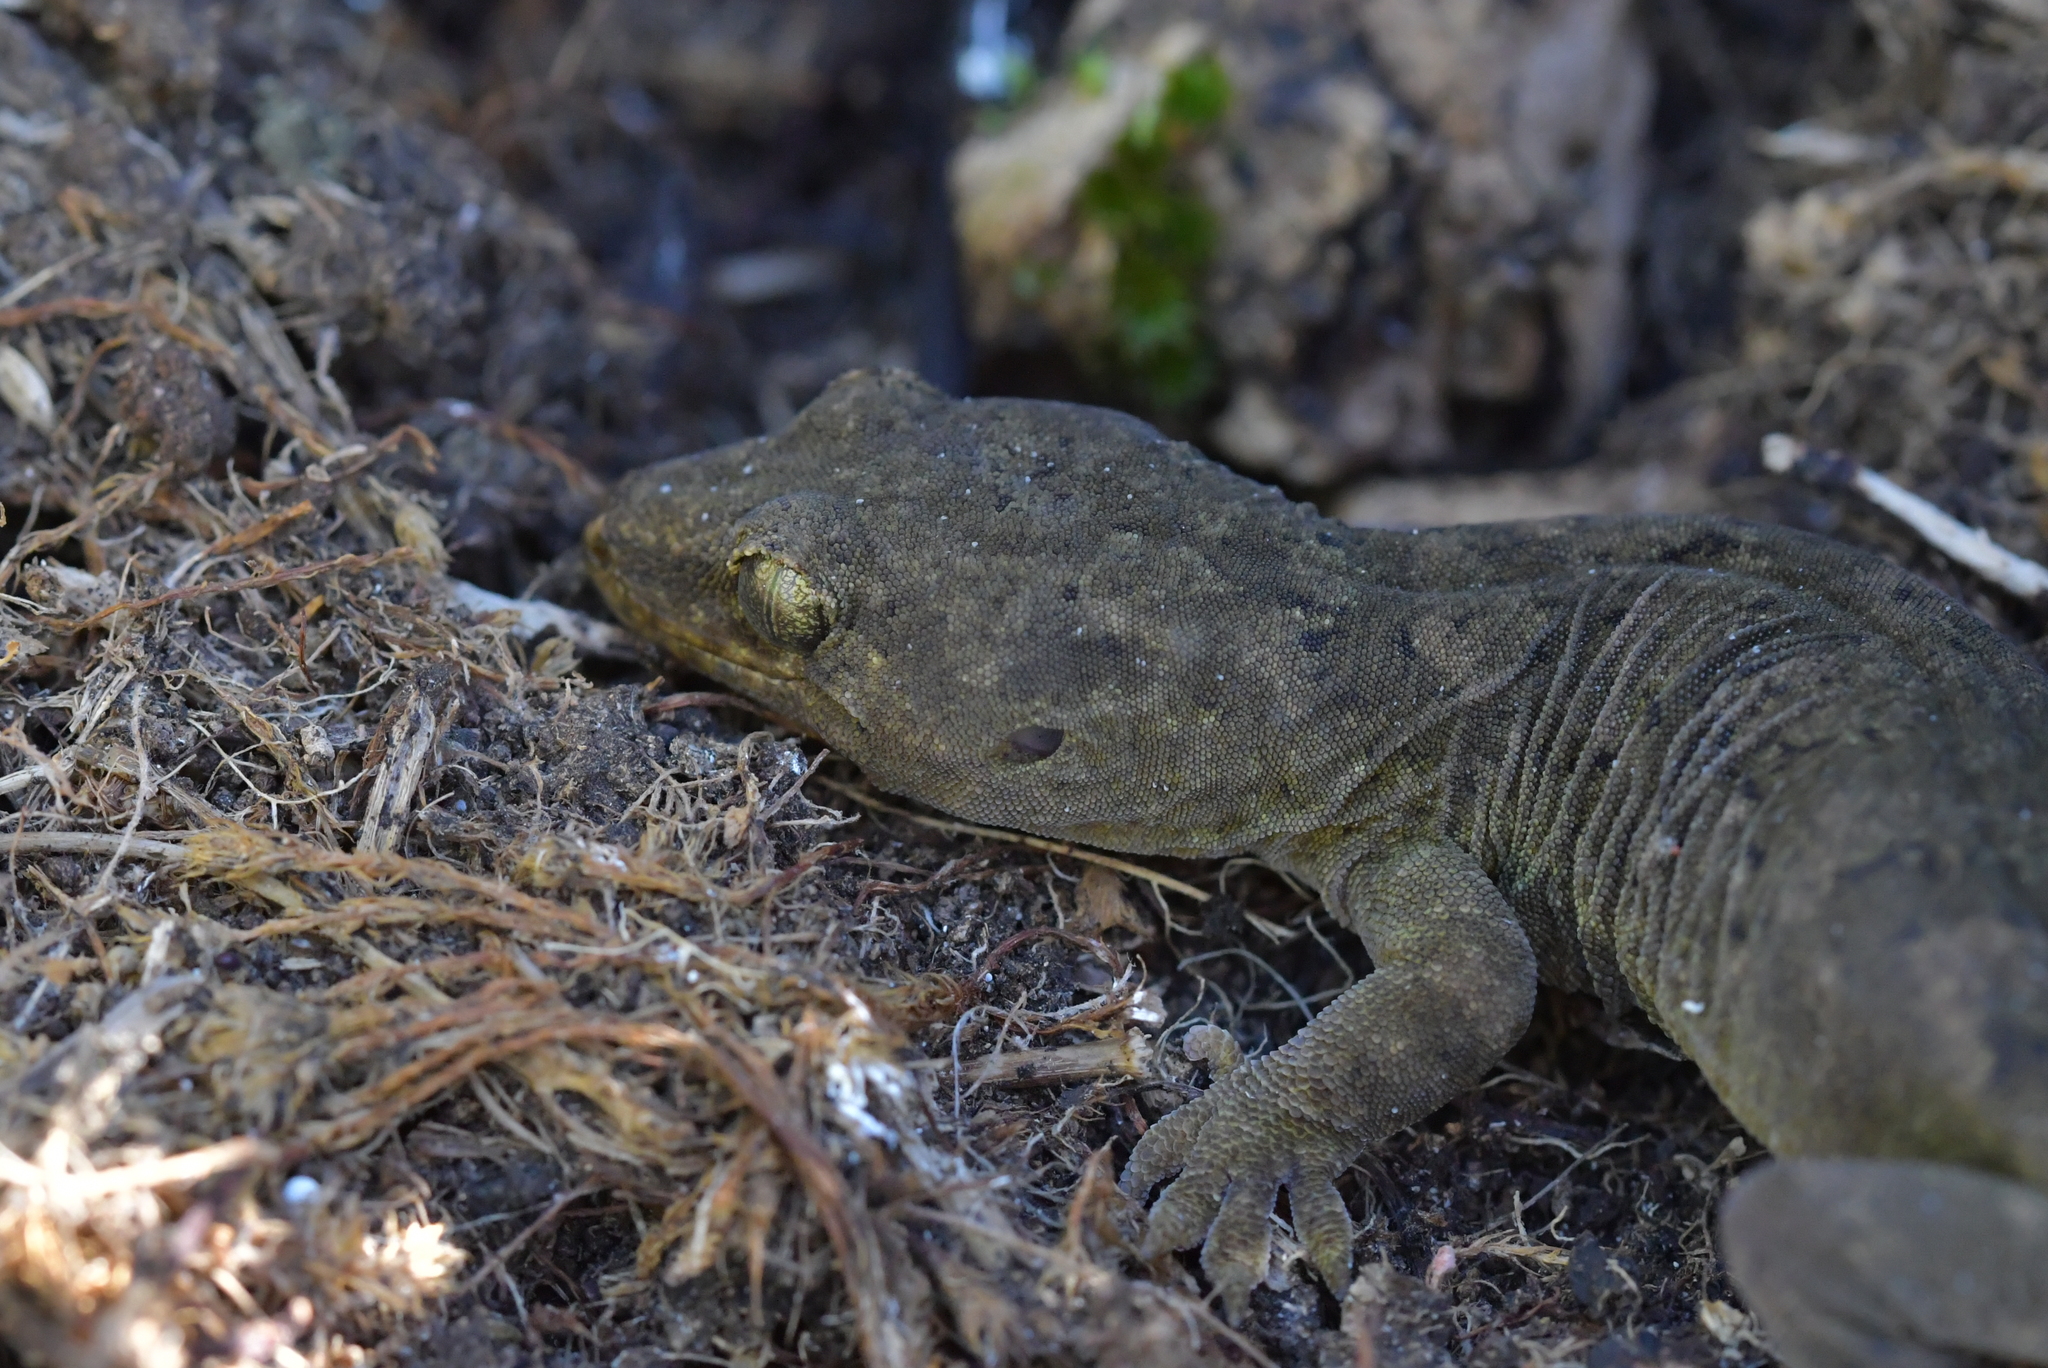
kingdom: Animalia
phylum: Chordata
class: Squamata
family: Diplodactylidae
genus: Woodworthia
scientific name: Woodworthia maculata
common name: Raukawa gecko
